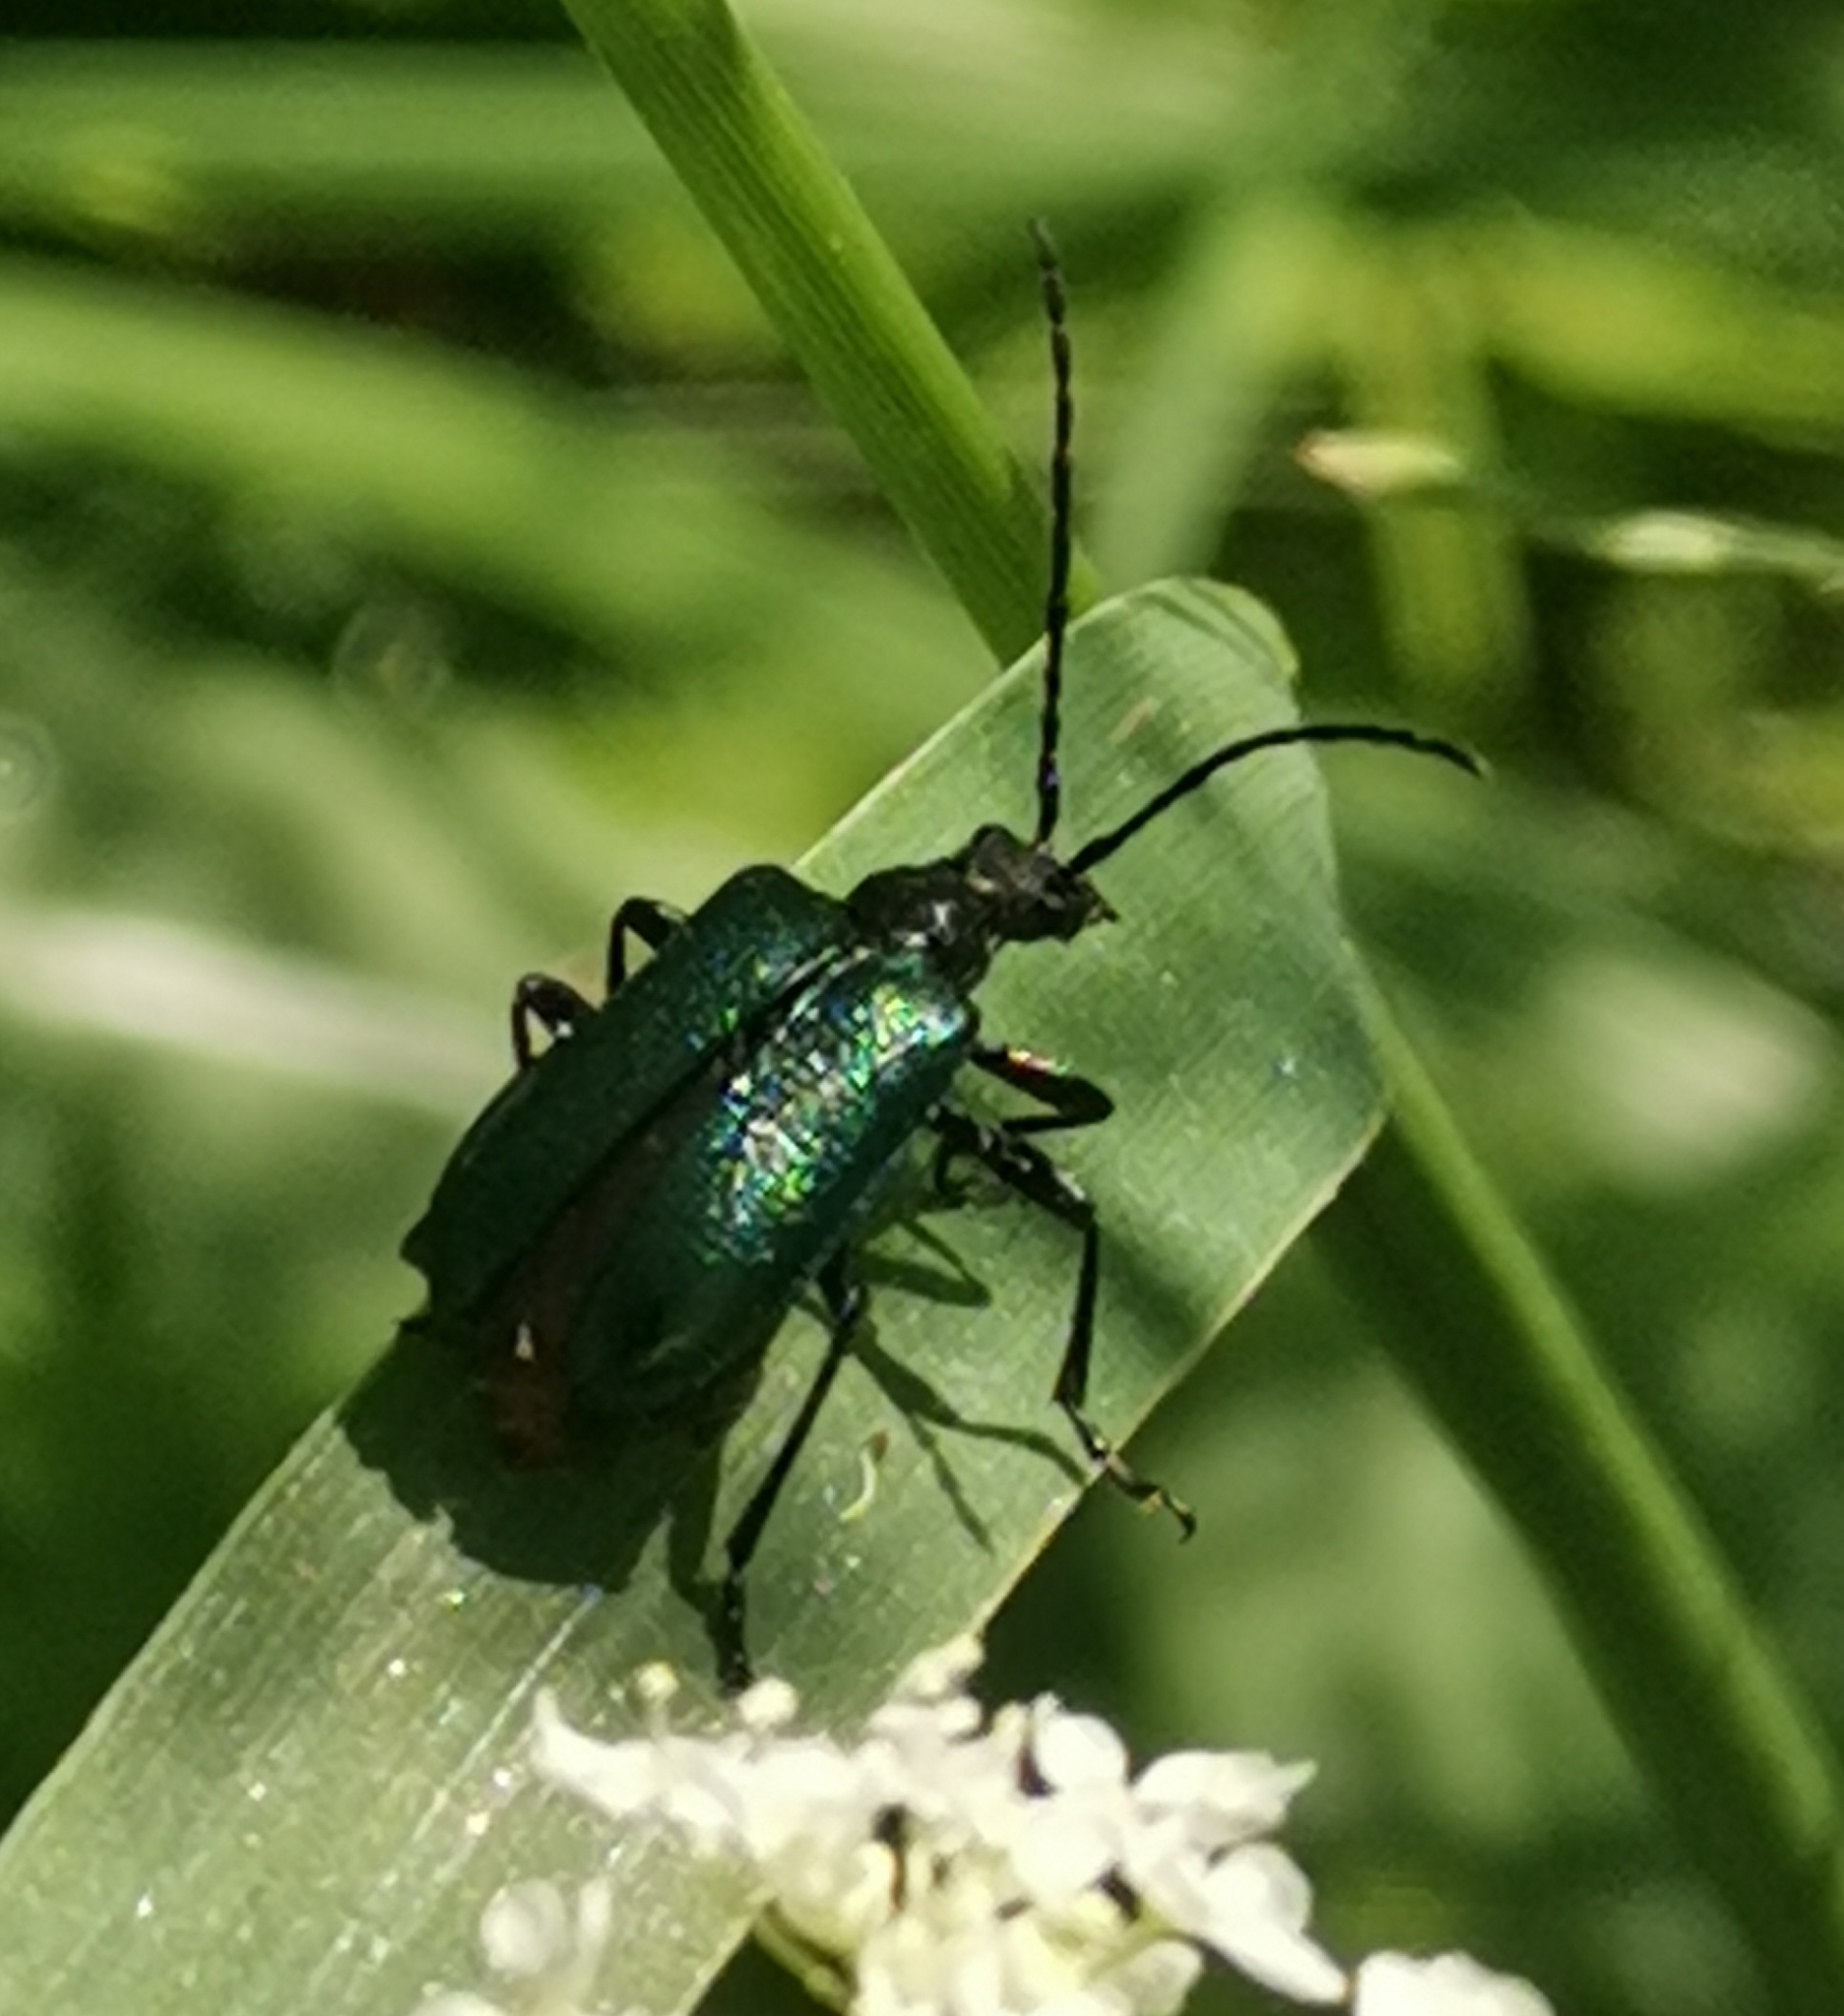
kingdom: Animalia
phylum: Arthropoda
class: Insecta
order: Coleoptera
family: Cerambycidae
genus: Gaurotes
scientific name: Gaurotes virginea
